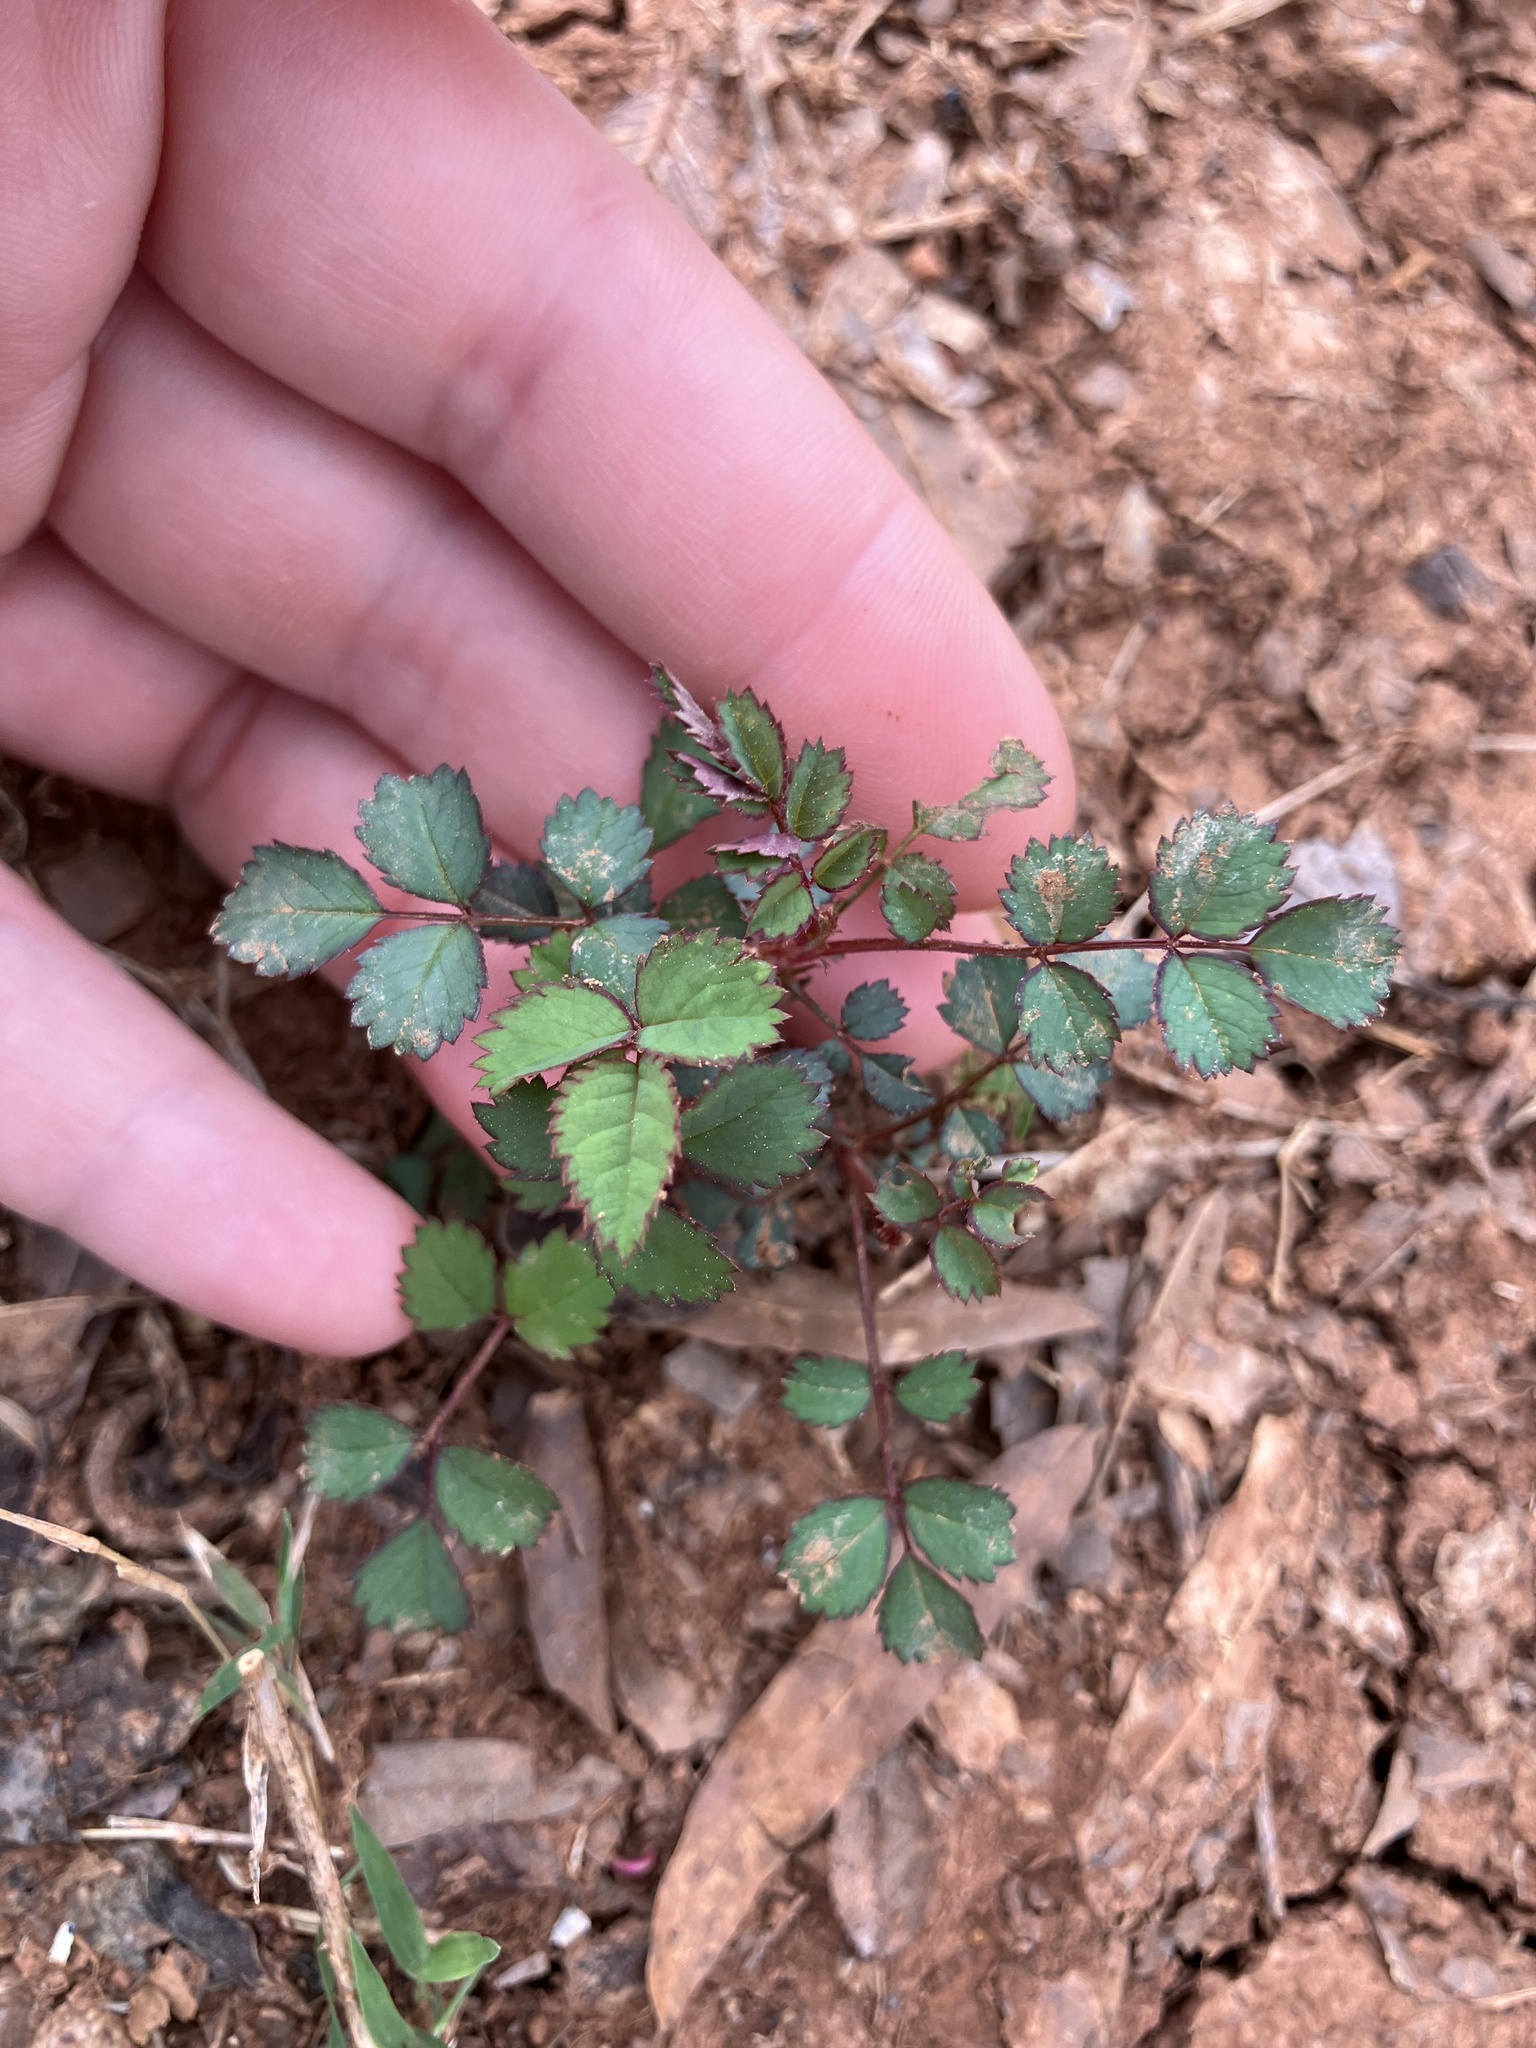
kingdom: Plantae
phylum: Tracheophyta
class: Magnoliopsida
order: Rosales
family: Rosaceae
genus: Rosa
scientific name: Rosa multiflora
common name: Multiflora rose
